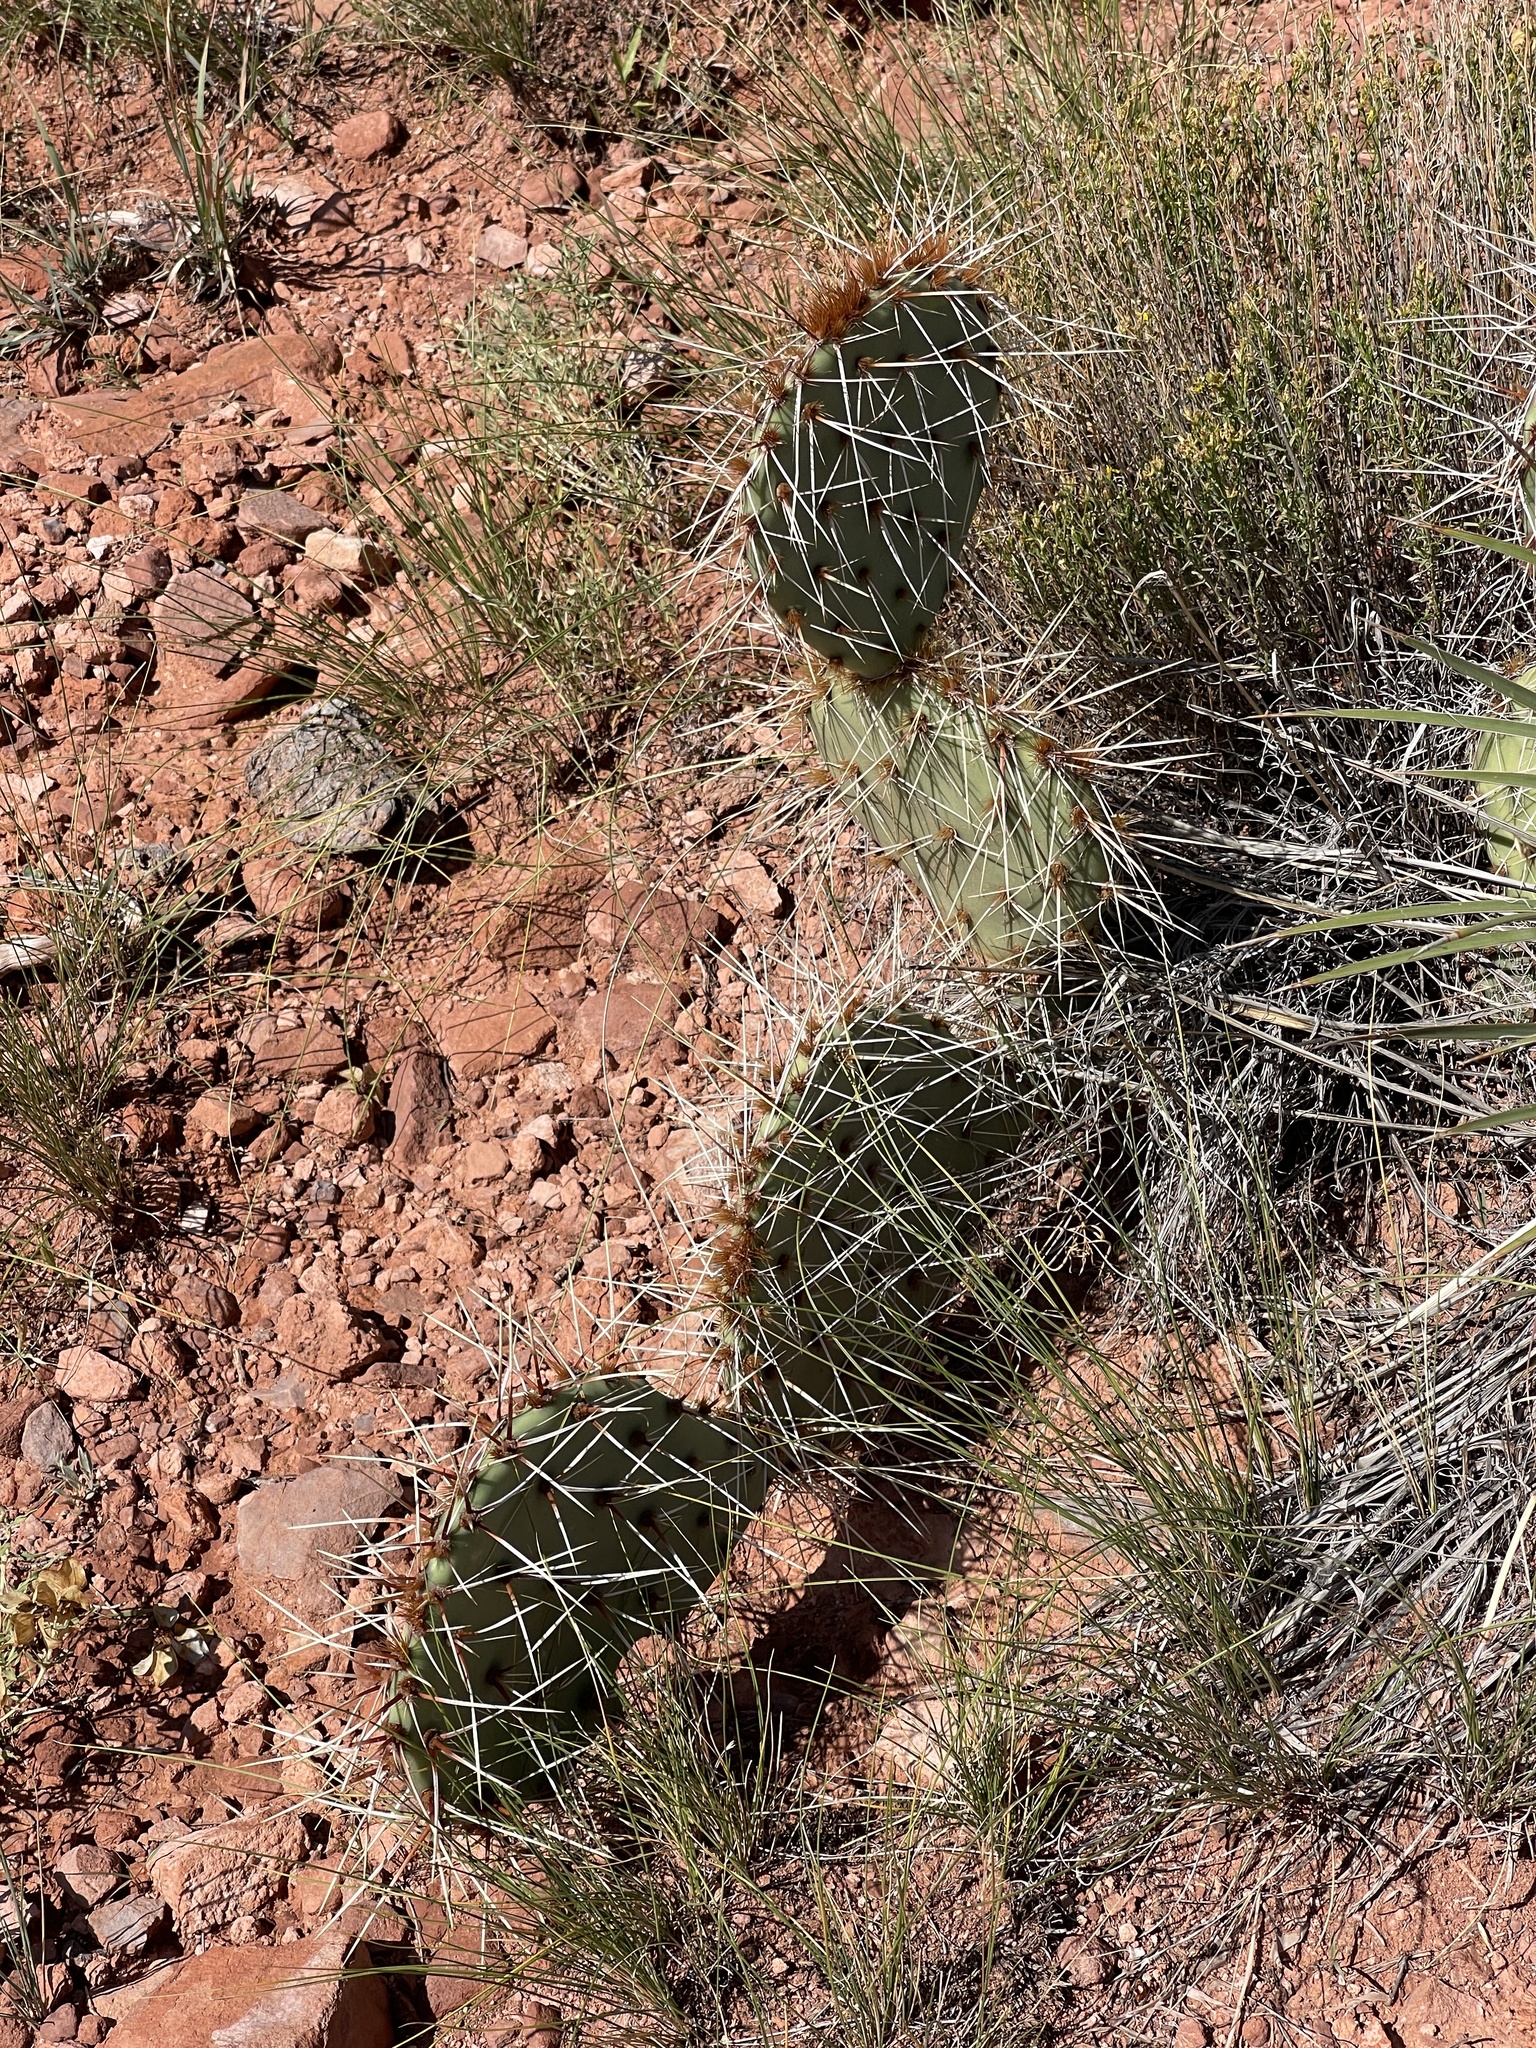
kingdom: Plantae
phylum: Tracheophyta
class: Magnoliopsida
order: Caryophyllales
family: Cactaceae
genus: Opuntia
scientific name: Opuntia macrorhiza
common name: Grassland pricklypear
